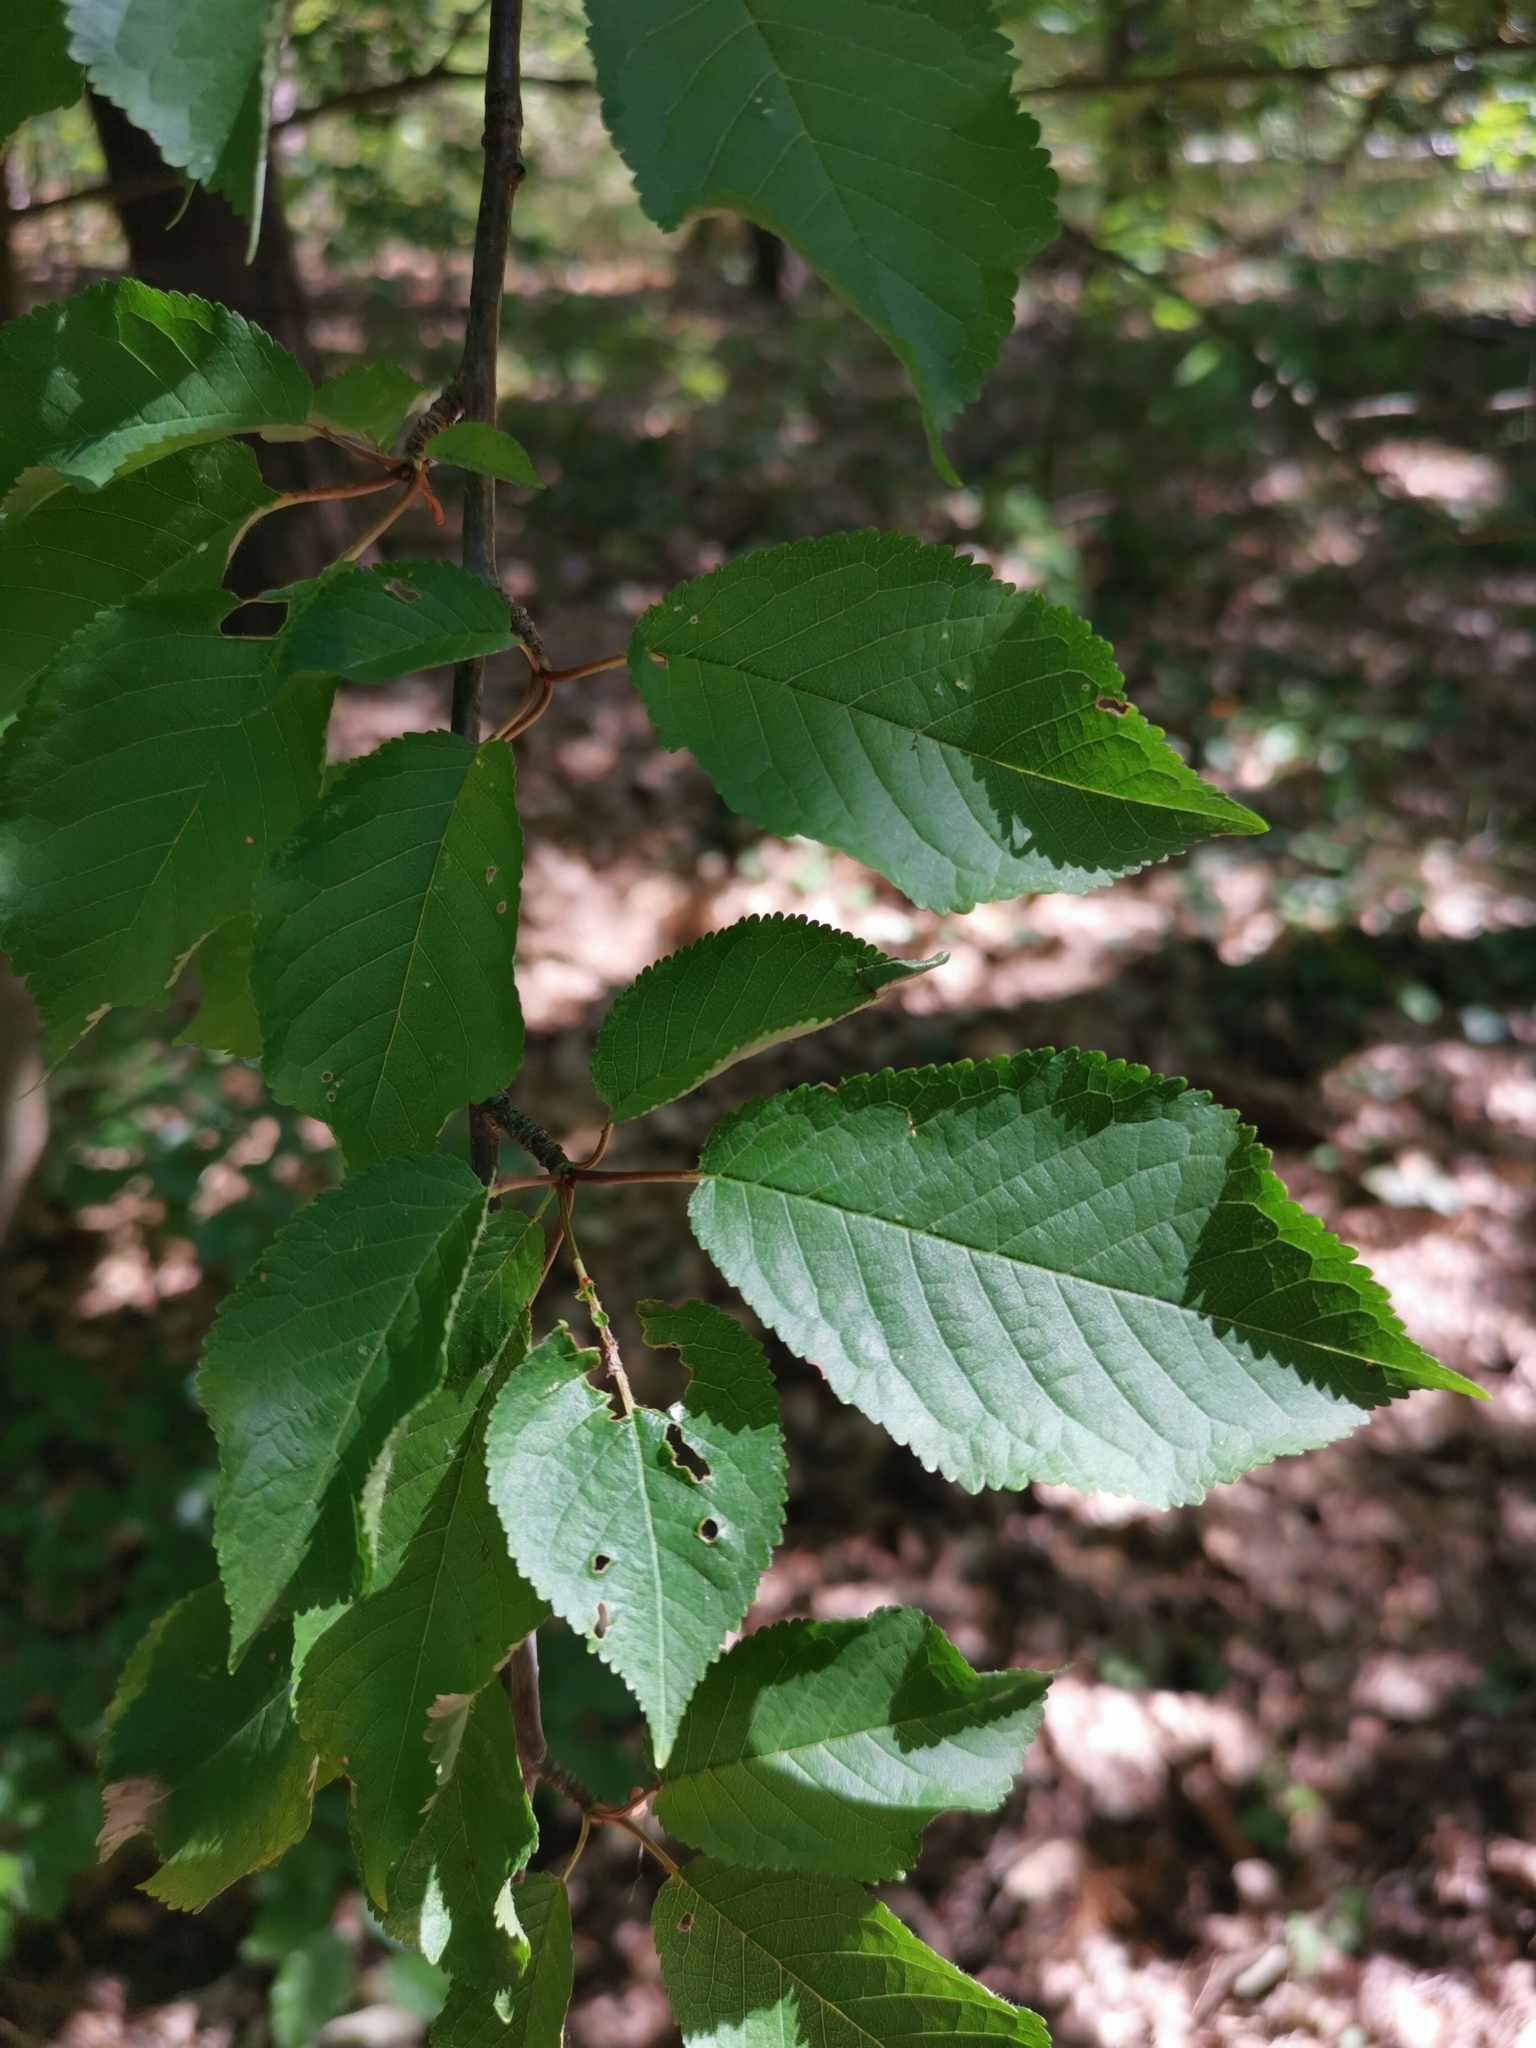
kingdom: Plantae
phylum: Tracheophyta
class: Magnoliopsida
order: Rosales
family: Rosaceae
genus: Prunus
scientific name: Prunus avium
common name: Sweet cherry
